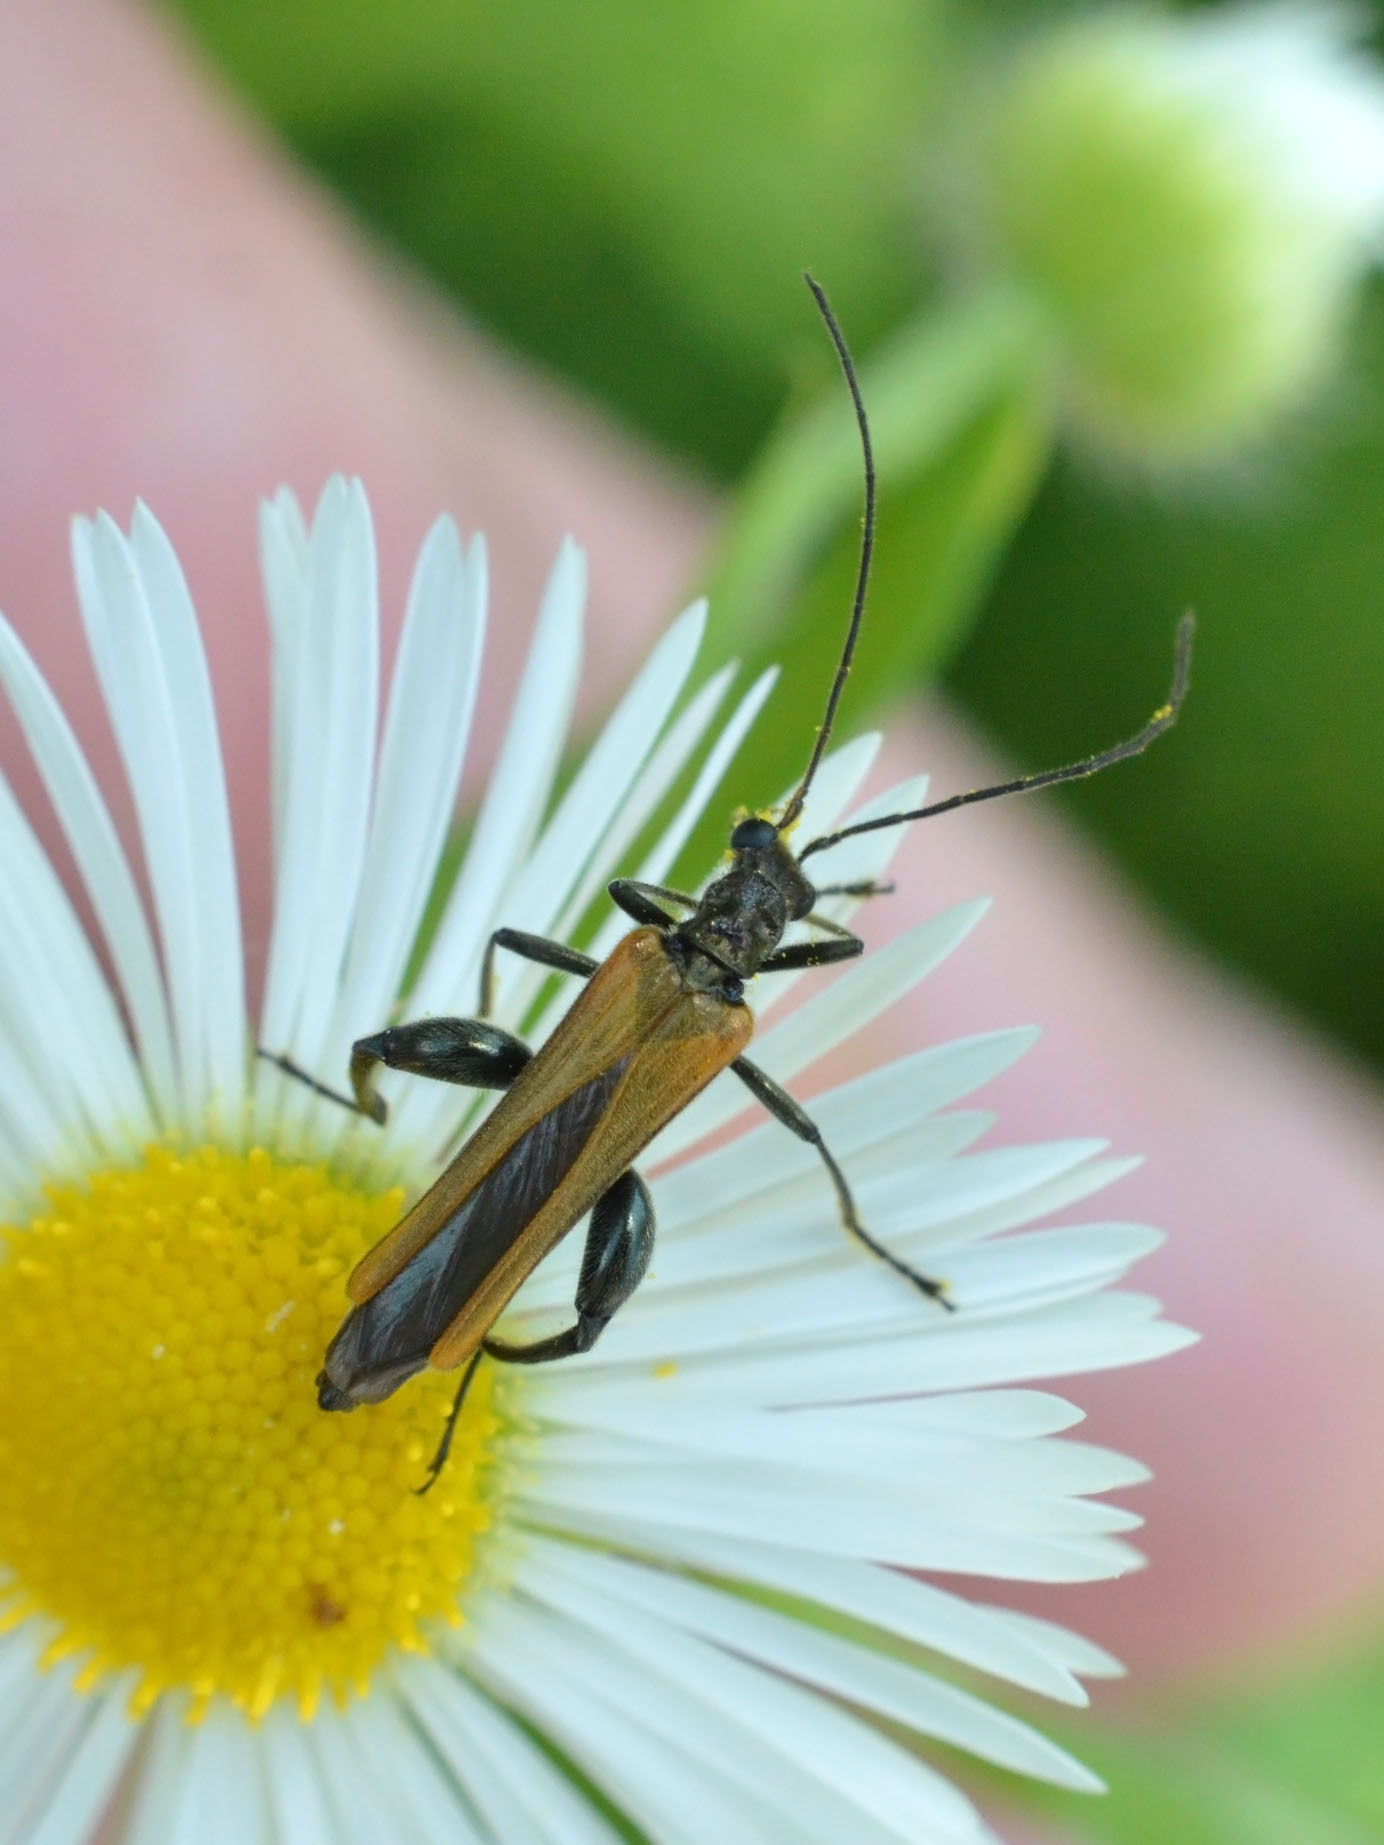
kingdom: Animalia
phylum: Arthropoda
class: Insecta
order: Coleoptera
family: Oedemeridae
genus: Oedemera
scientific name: Oedemera femorata
